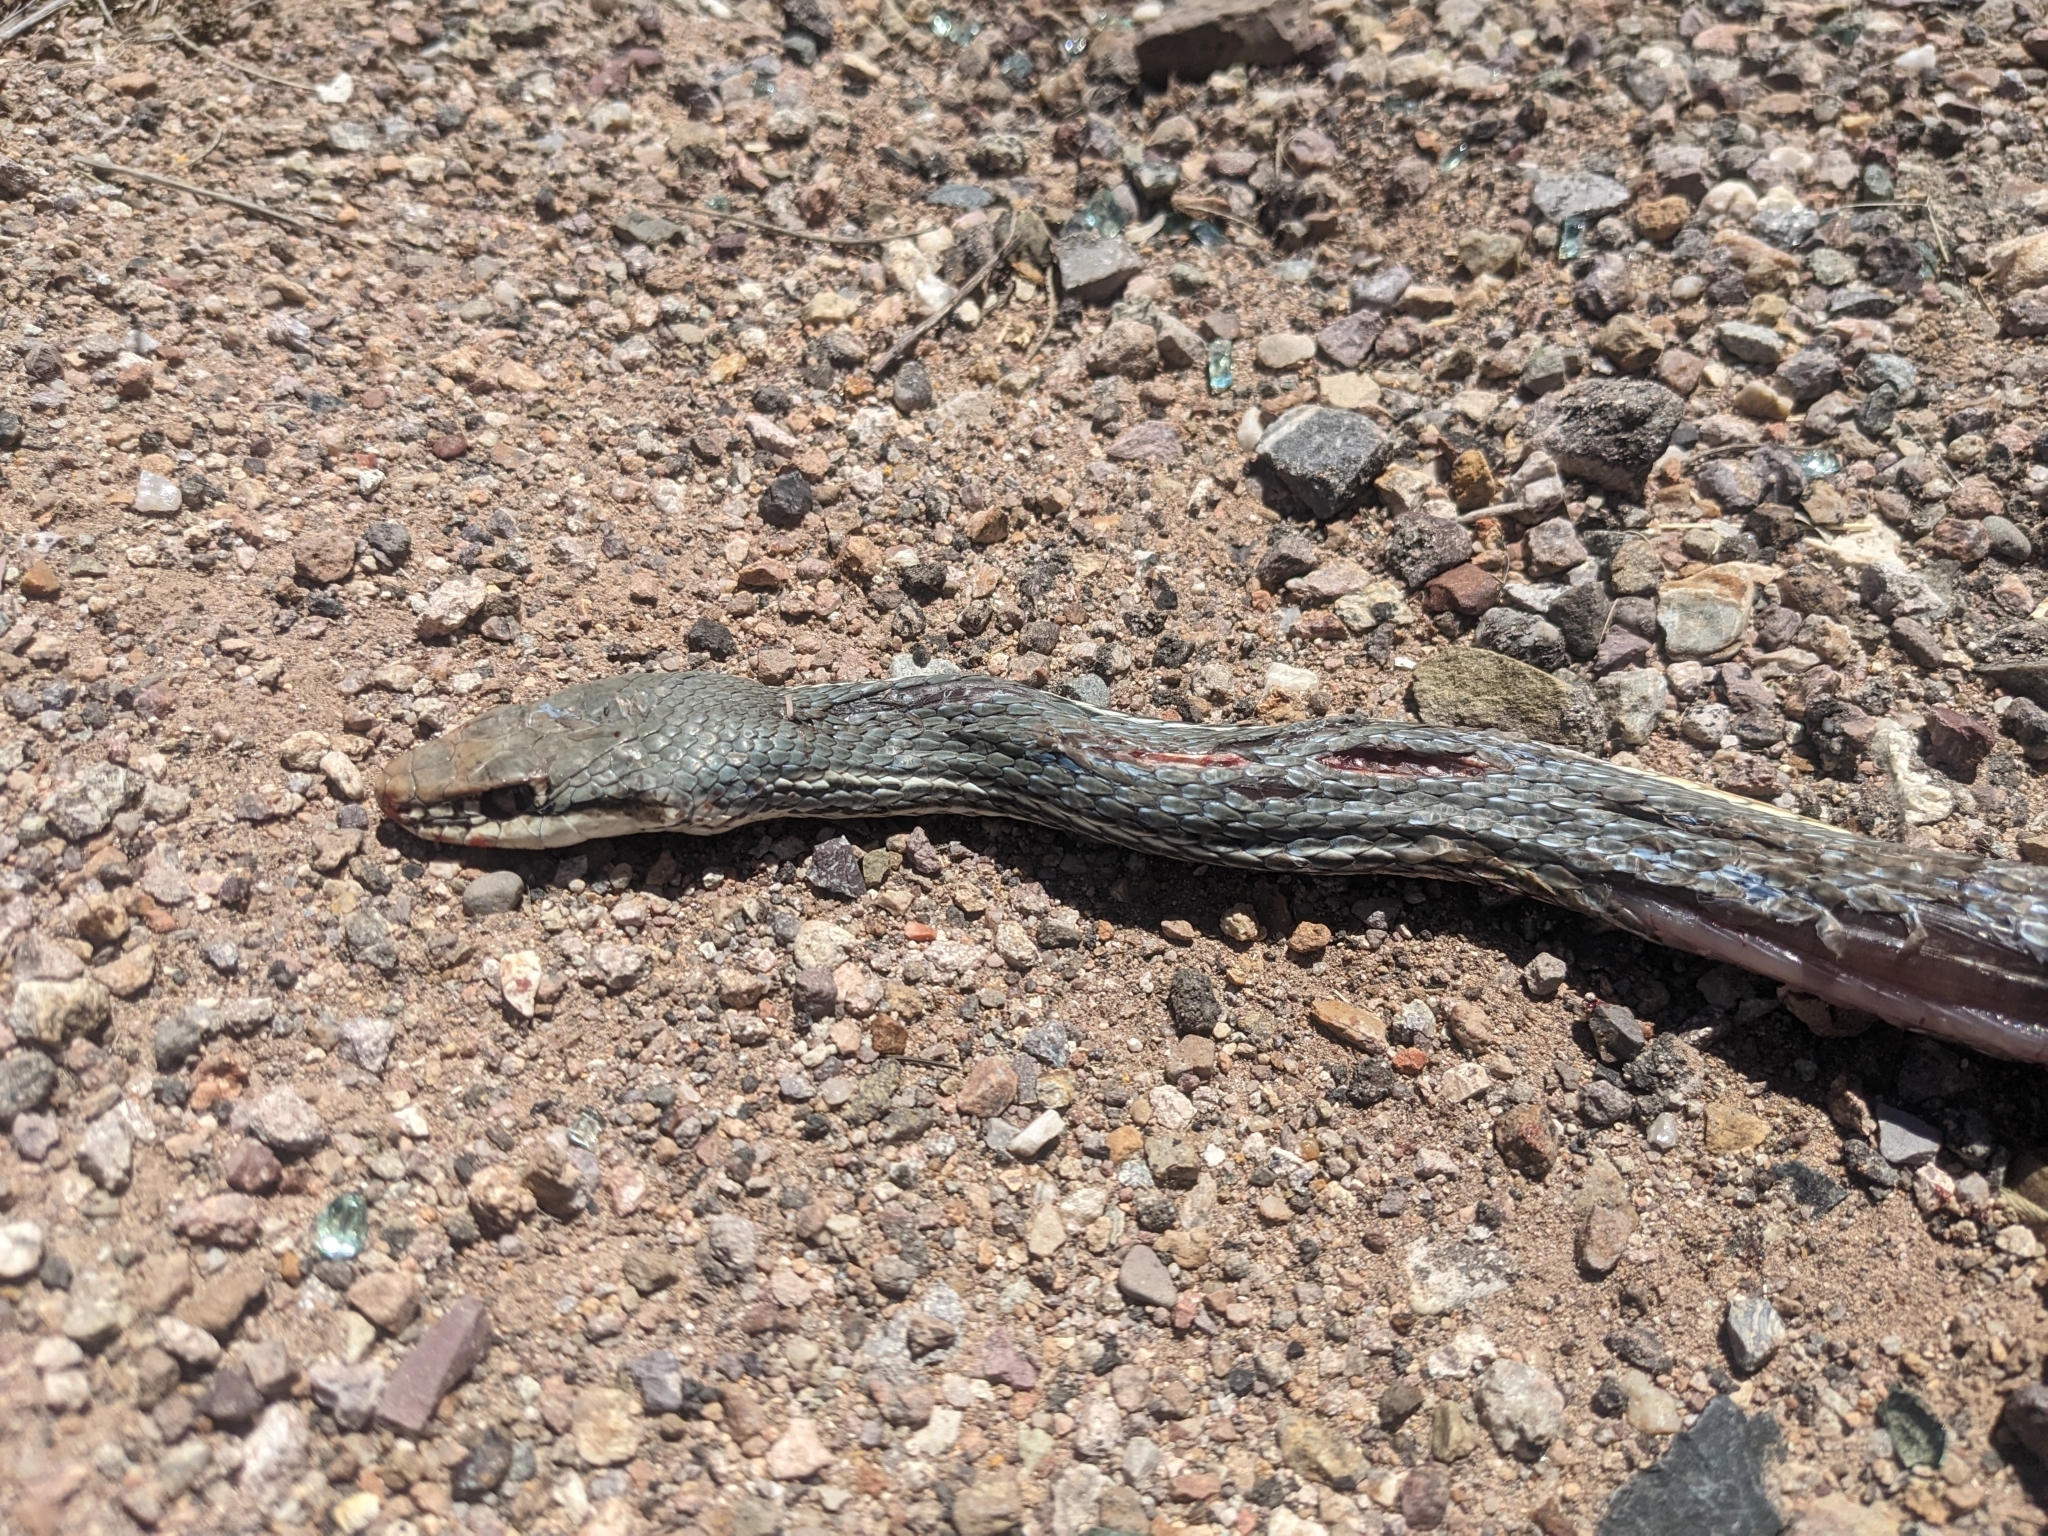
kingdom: Animalia
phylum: Chordata
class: Squamata
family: Colubridae
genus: Masticophis
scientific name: Masticophis bilineatus
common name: Sonoran whipsnake
